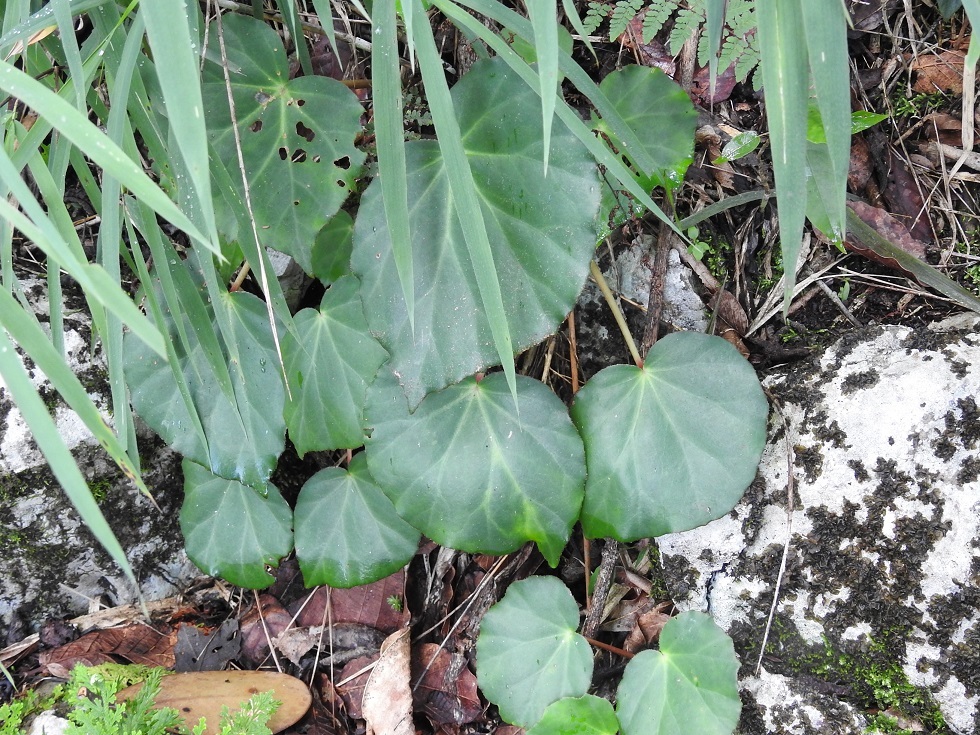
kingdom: Plantae
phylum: Tracheophyta
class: Magnoliopsida
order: Cucurbitales
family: Begoniaceae
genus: Begonia
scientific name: Begonia sericoneura
